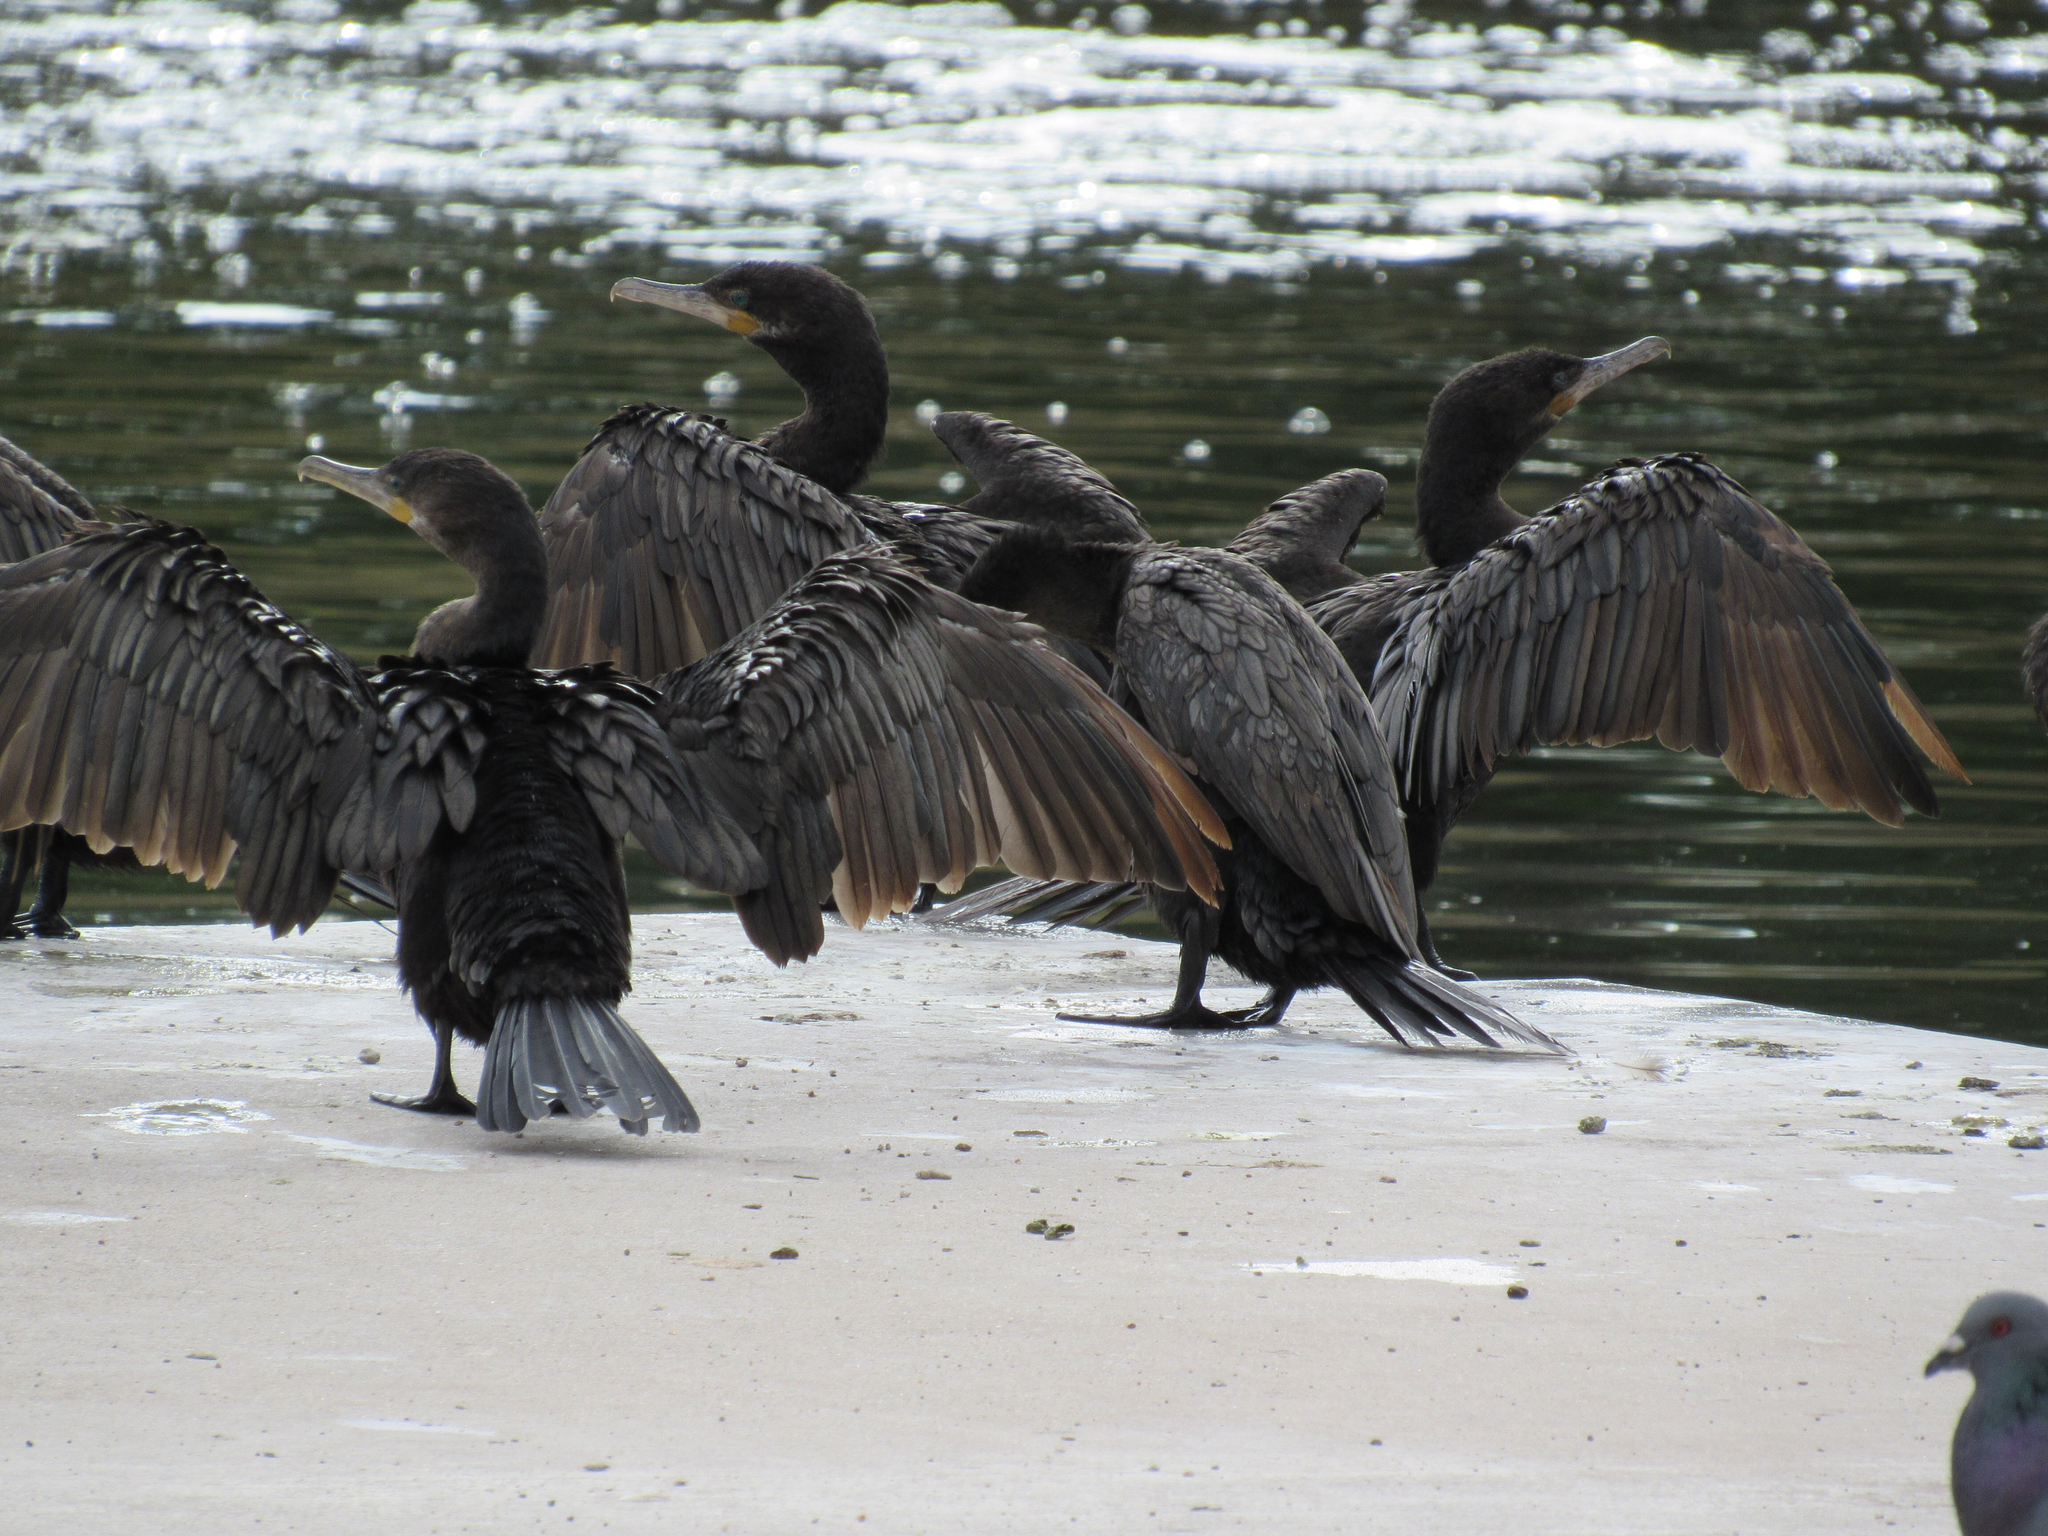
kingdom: Animalia
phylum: Chordata
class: Aves
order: Suliformes
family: Phalacrocoracidae
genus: Phalacrocorax
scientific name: Phalacrocorax brasilianus
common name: Neotropic cormorant
